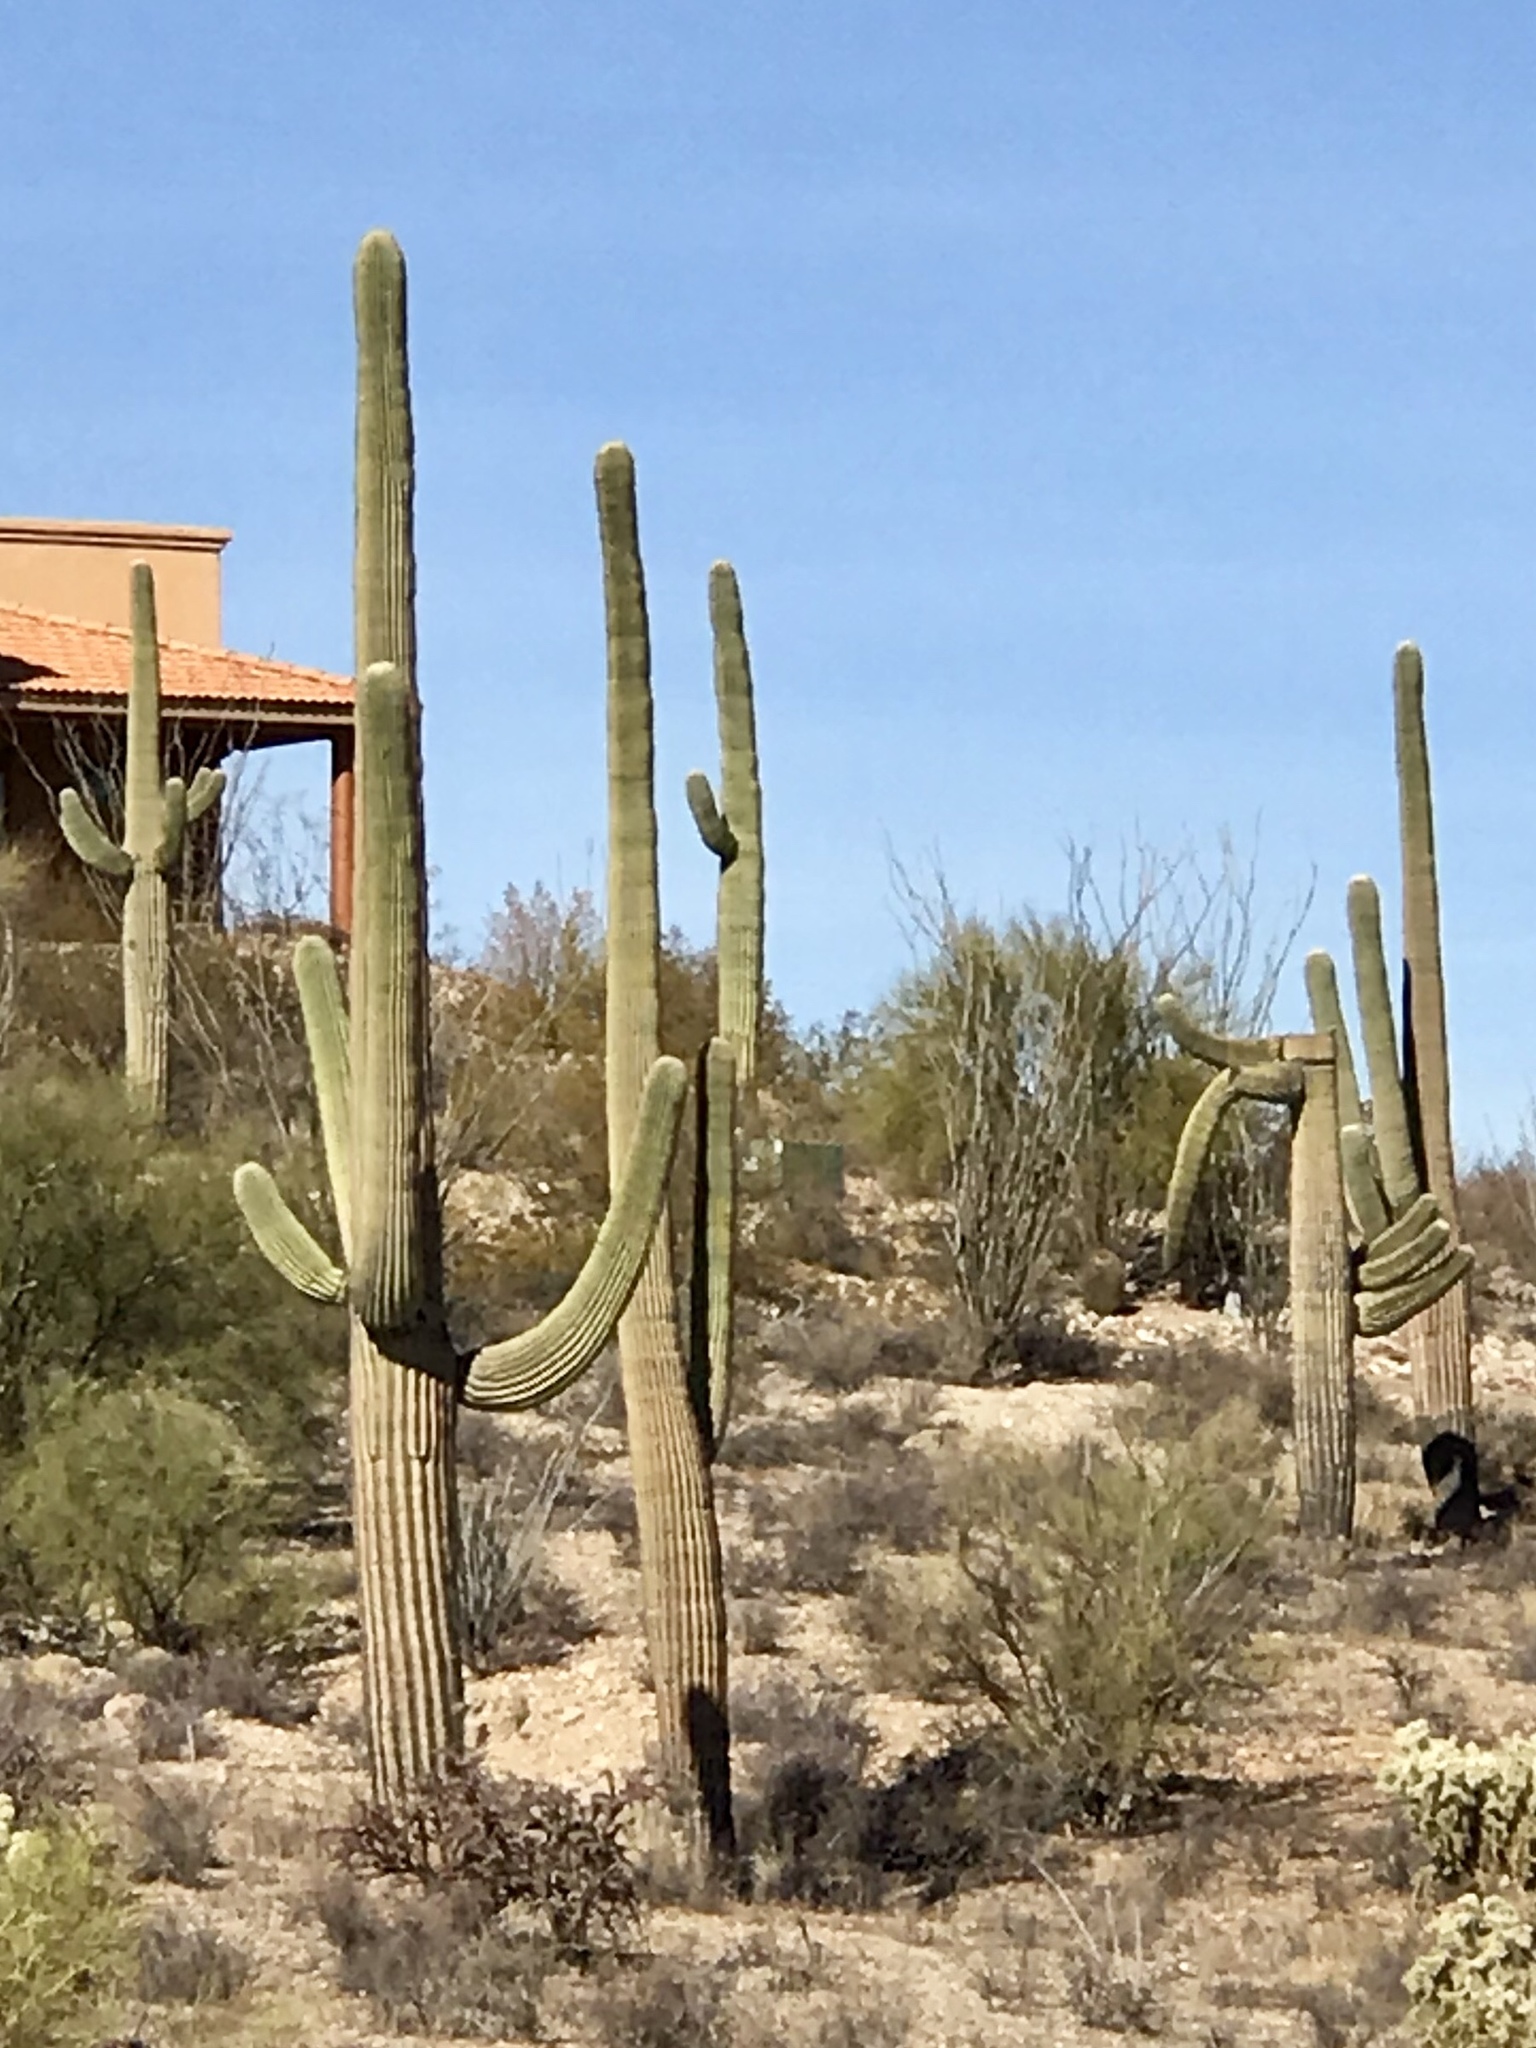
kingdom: Plantae
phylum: Tracheophyta
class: Magnoliopsida
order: Caryophyllales
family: Cactaceae
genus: Carnegiea
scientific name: Carnegiea gigantea
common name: Saguaro
